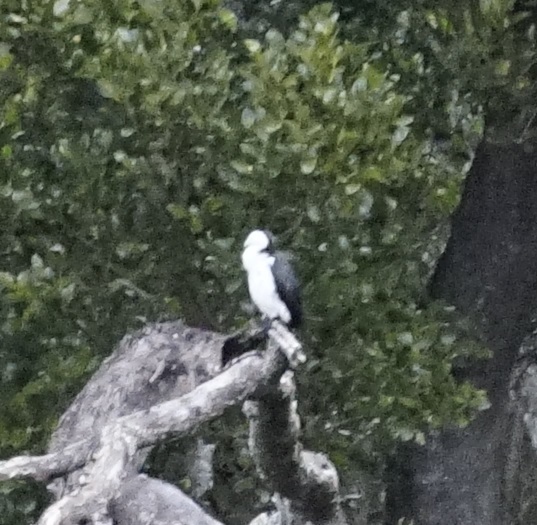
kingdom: Animalia
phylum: Chordata
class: Aves
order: Suliformes
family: Phalacrocoracidae
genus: Microcarbo
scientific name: Microcarbo melanoleucos
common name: Little pied cormorant
